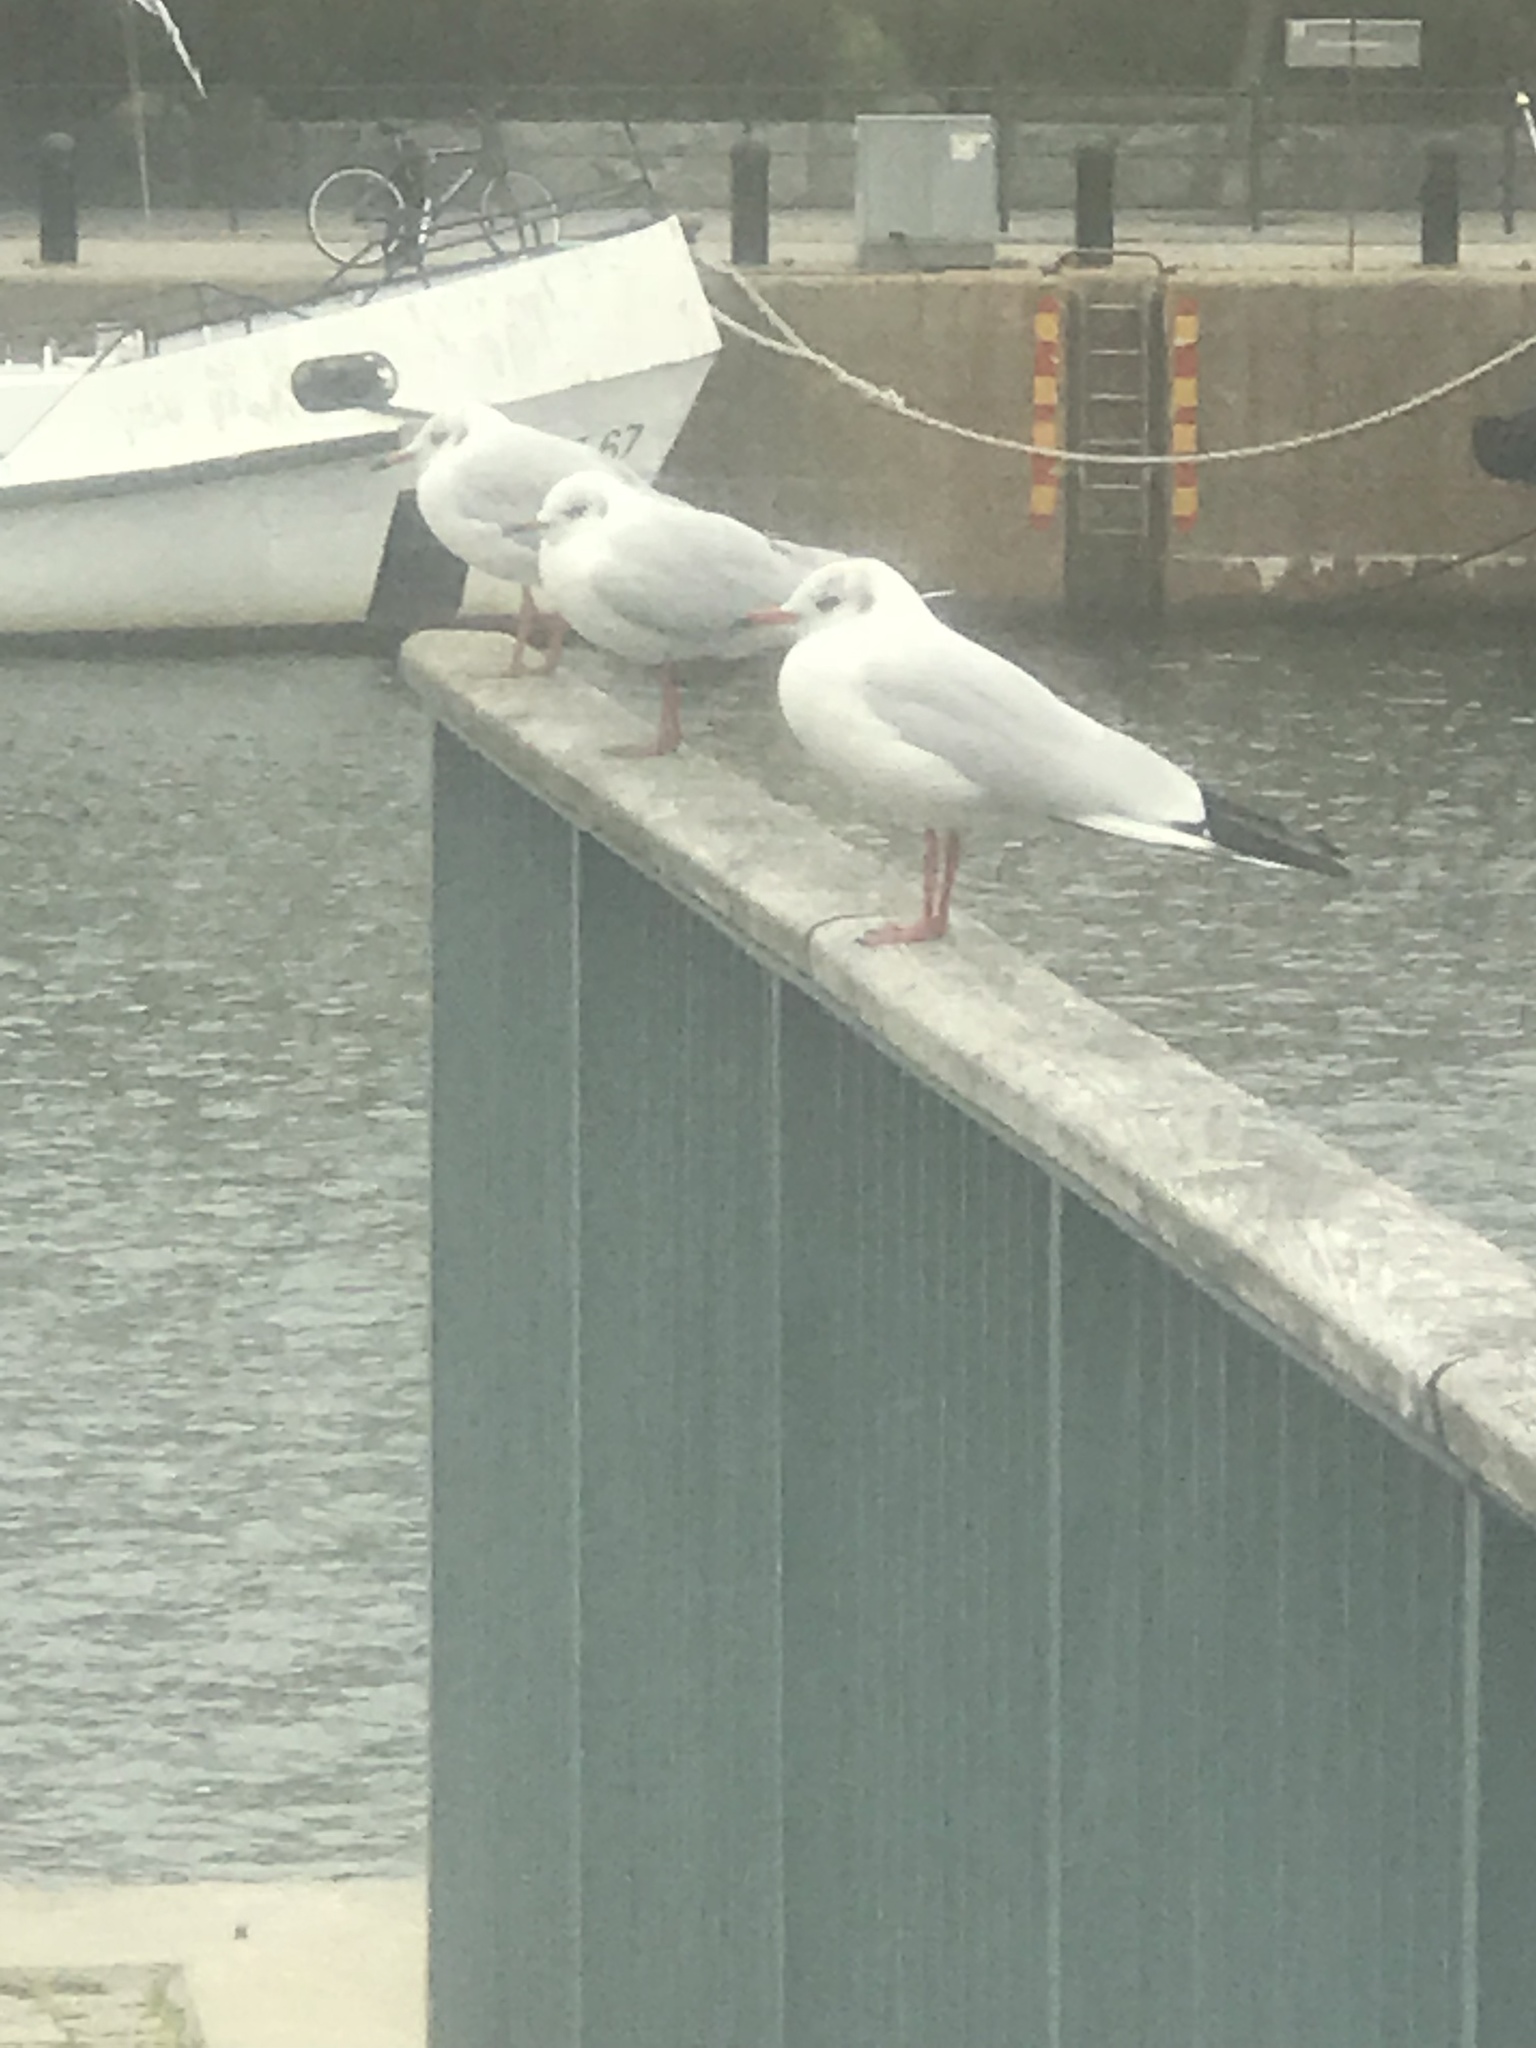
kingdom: Animalia
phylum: Chordata
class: Aves
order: Charadriiformes
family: Laridae
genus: Chroicocephalus
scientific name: Chroicocephalus ridibundus
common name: Black-headed gull
